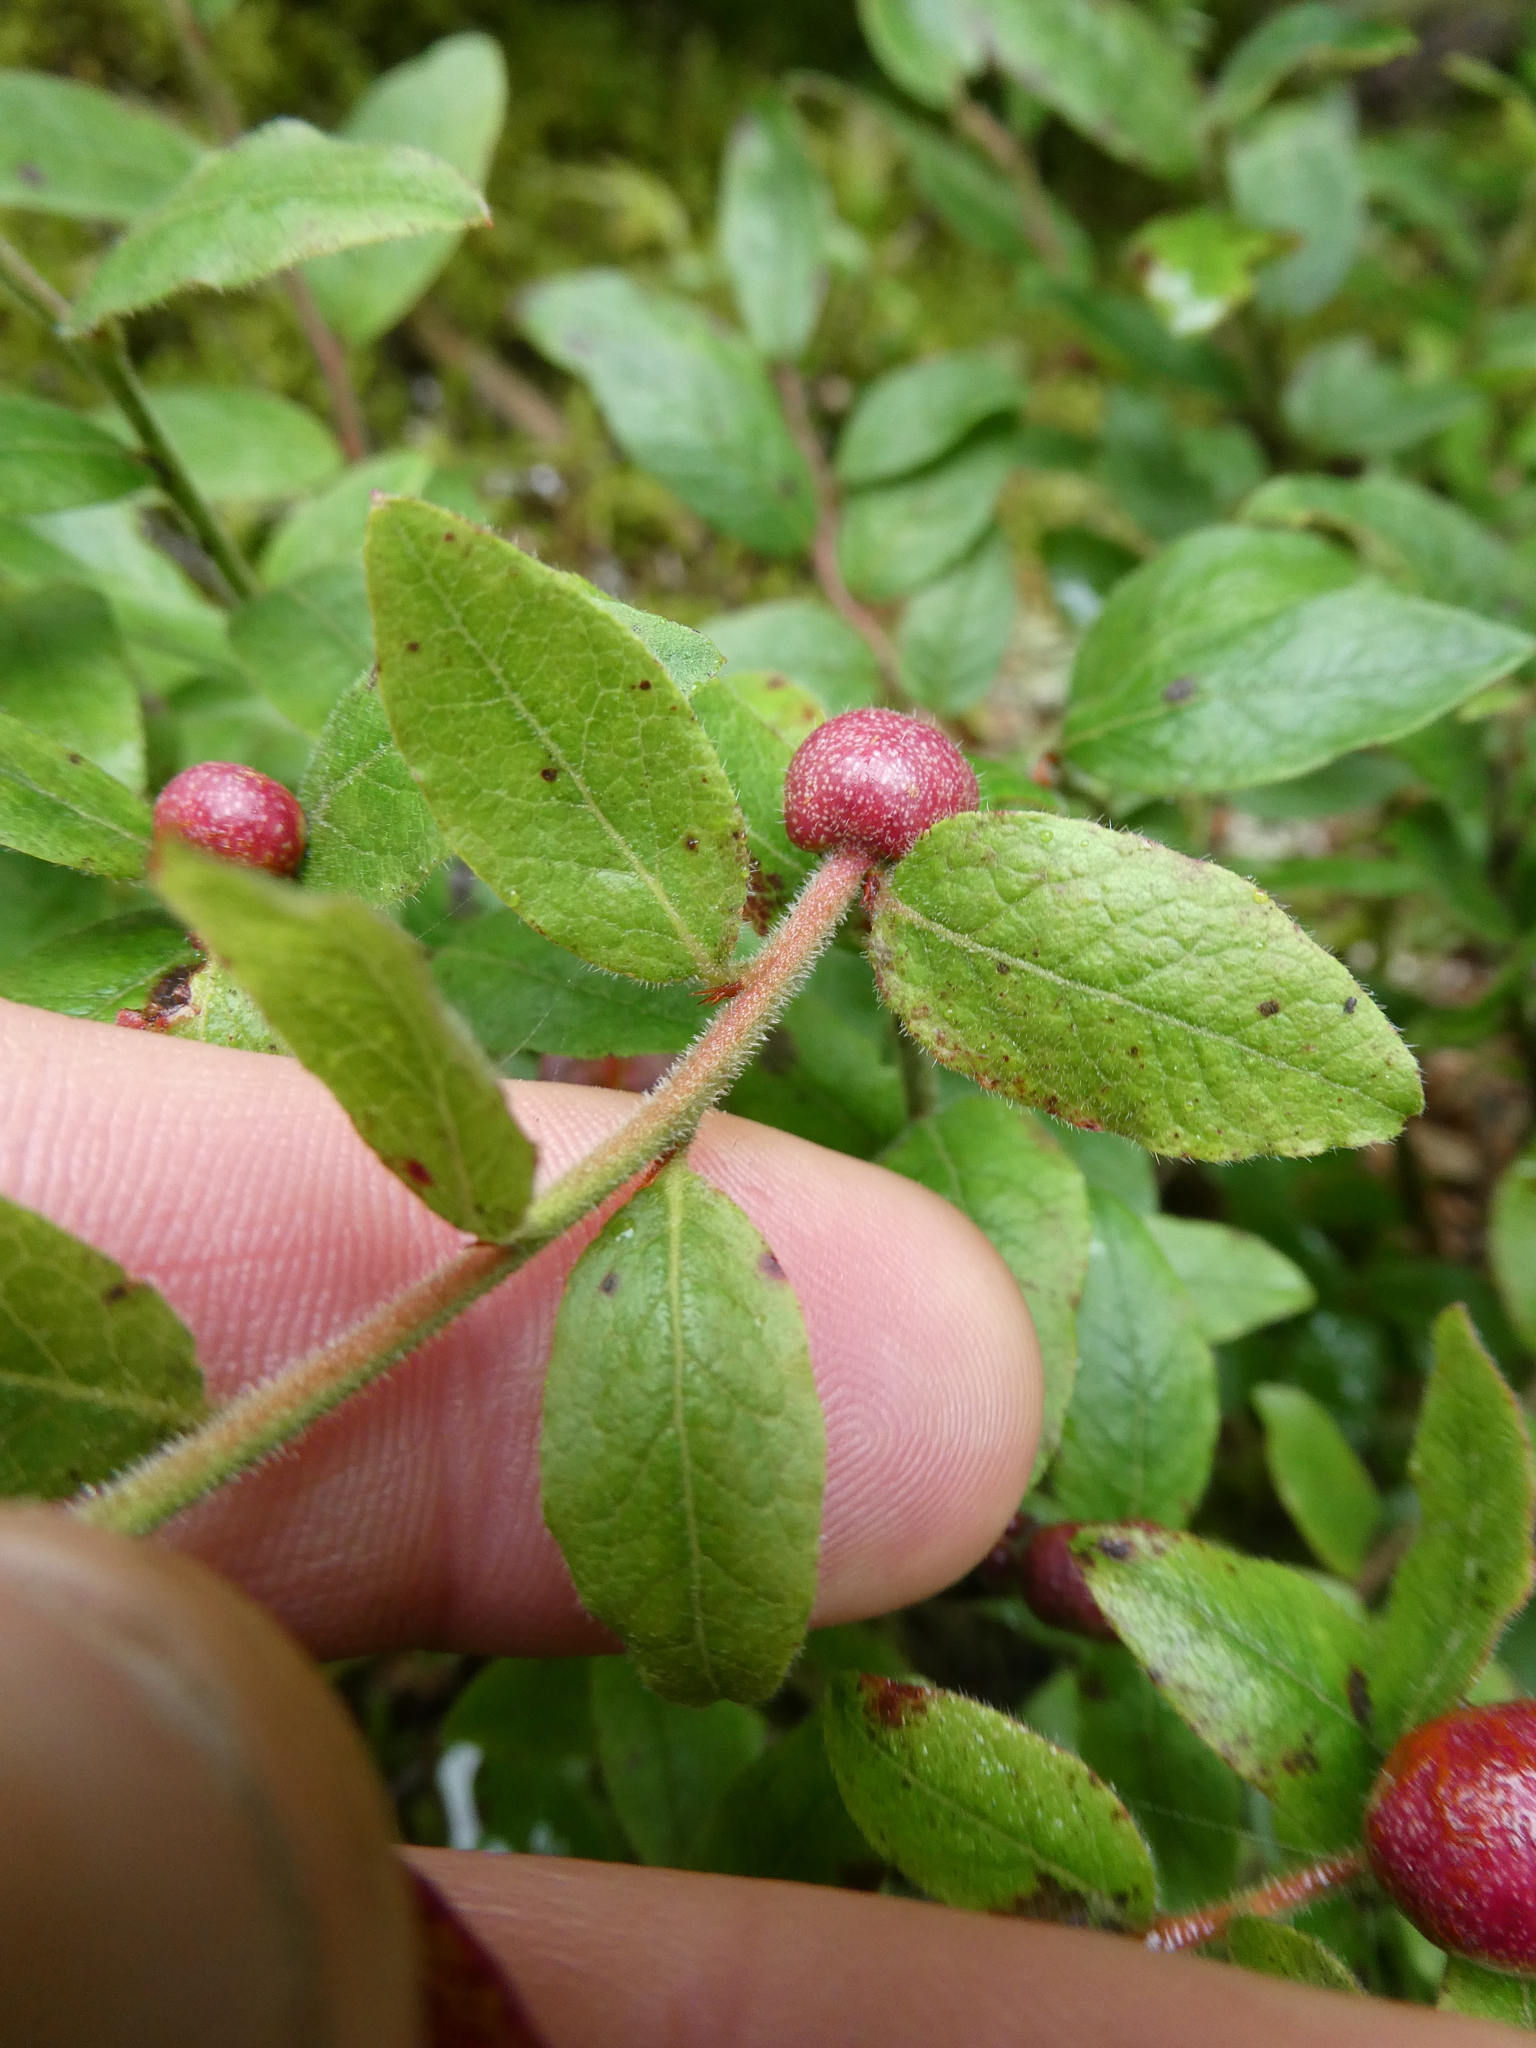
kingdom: Animalia
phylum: Arthropoda
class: Insecta
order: Hymenoptera
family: Pteromalidae
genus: Hemadas
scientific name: Hemadas nubilipennis
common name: Blueberry stem gall wasp
